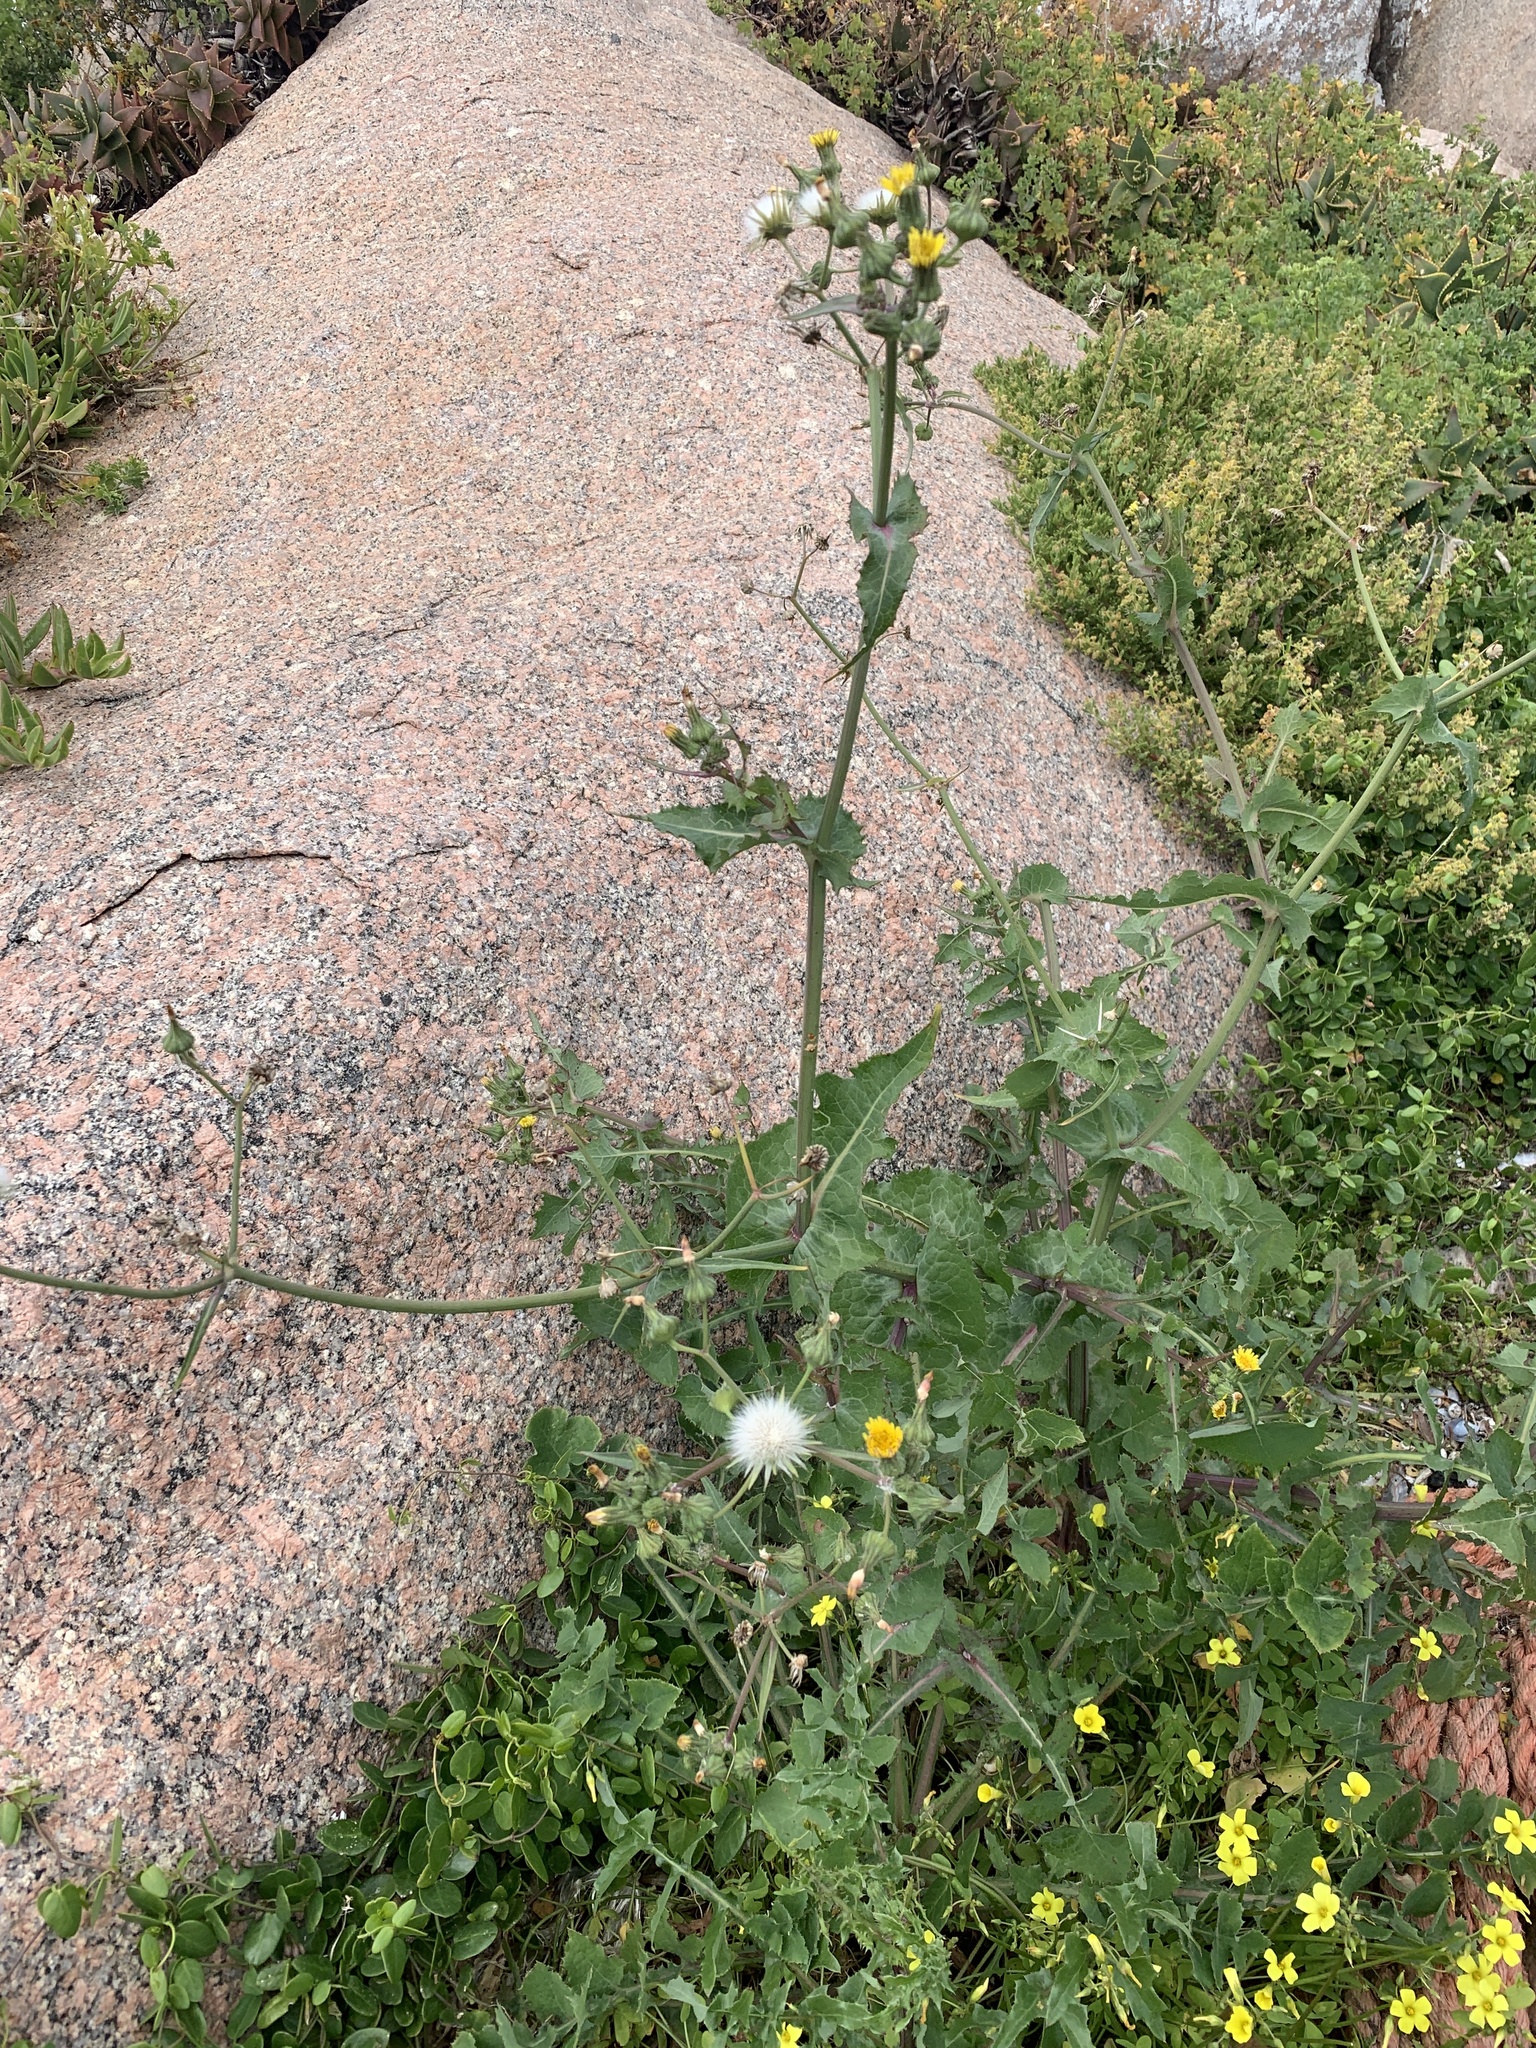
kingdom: Plantae
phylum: Tracheophyta
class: Magnoliopsida
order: Asterales
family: Asteraceae
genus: Sonchus
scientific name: Sonchus oleraceus
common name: Common sowthistle
